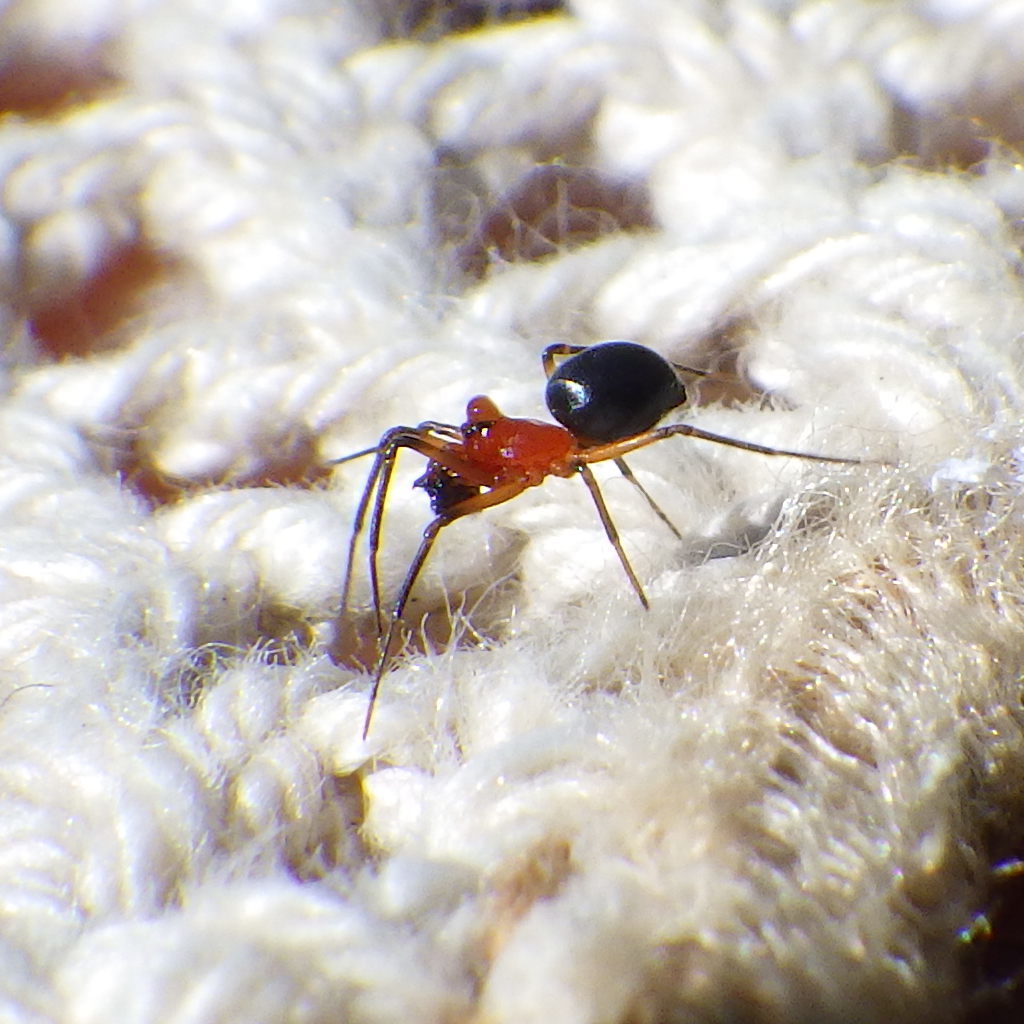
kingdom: Animalia
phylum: Arthropoda
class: Arachnida
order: Araneae
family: Linyphiidae
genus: Hypselistes
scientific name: Hypselistes florens
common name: Peatland sheetweb weaver
